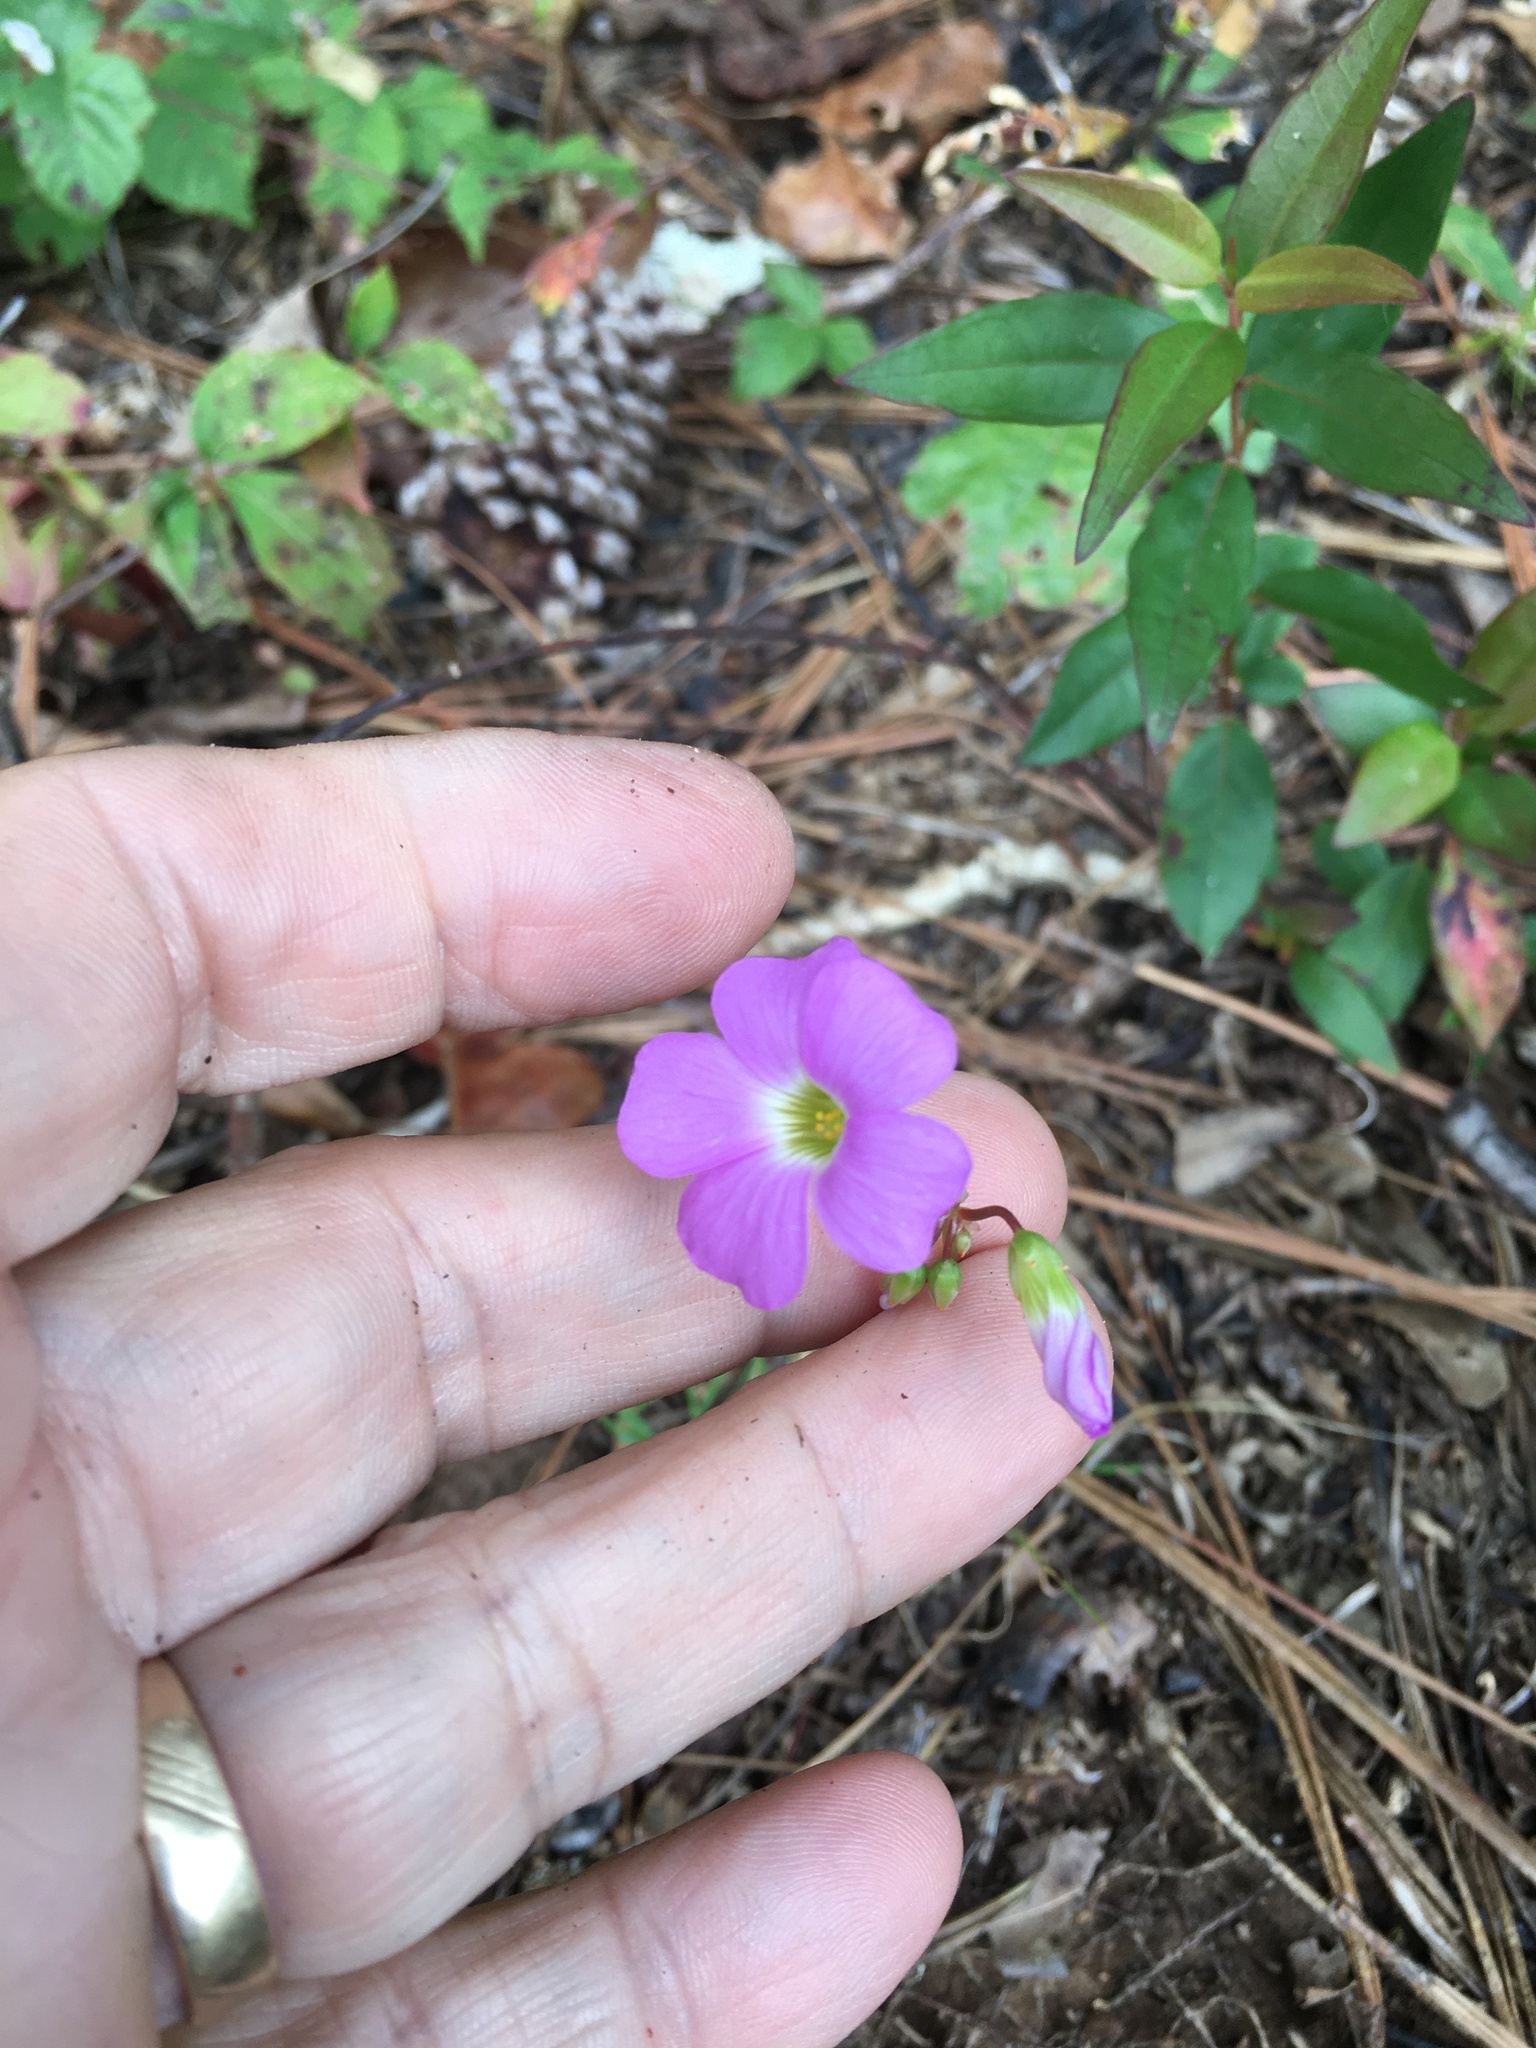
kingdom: Plantae
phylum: Tracheophyta
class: Magnoliopsida
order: Oxalidales
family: Oxalidaceae
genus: Oxalis
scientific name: Oxalis violacea
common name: Violet wood-sorrel
